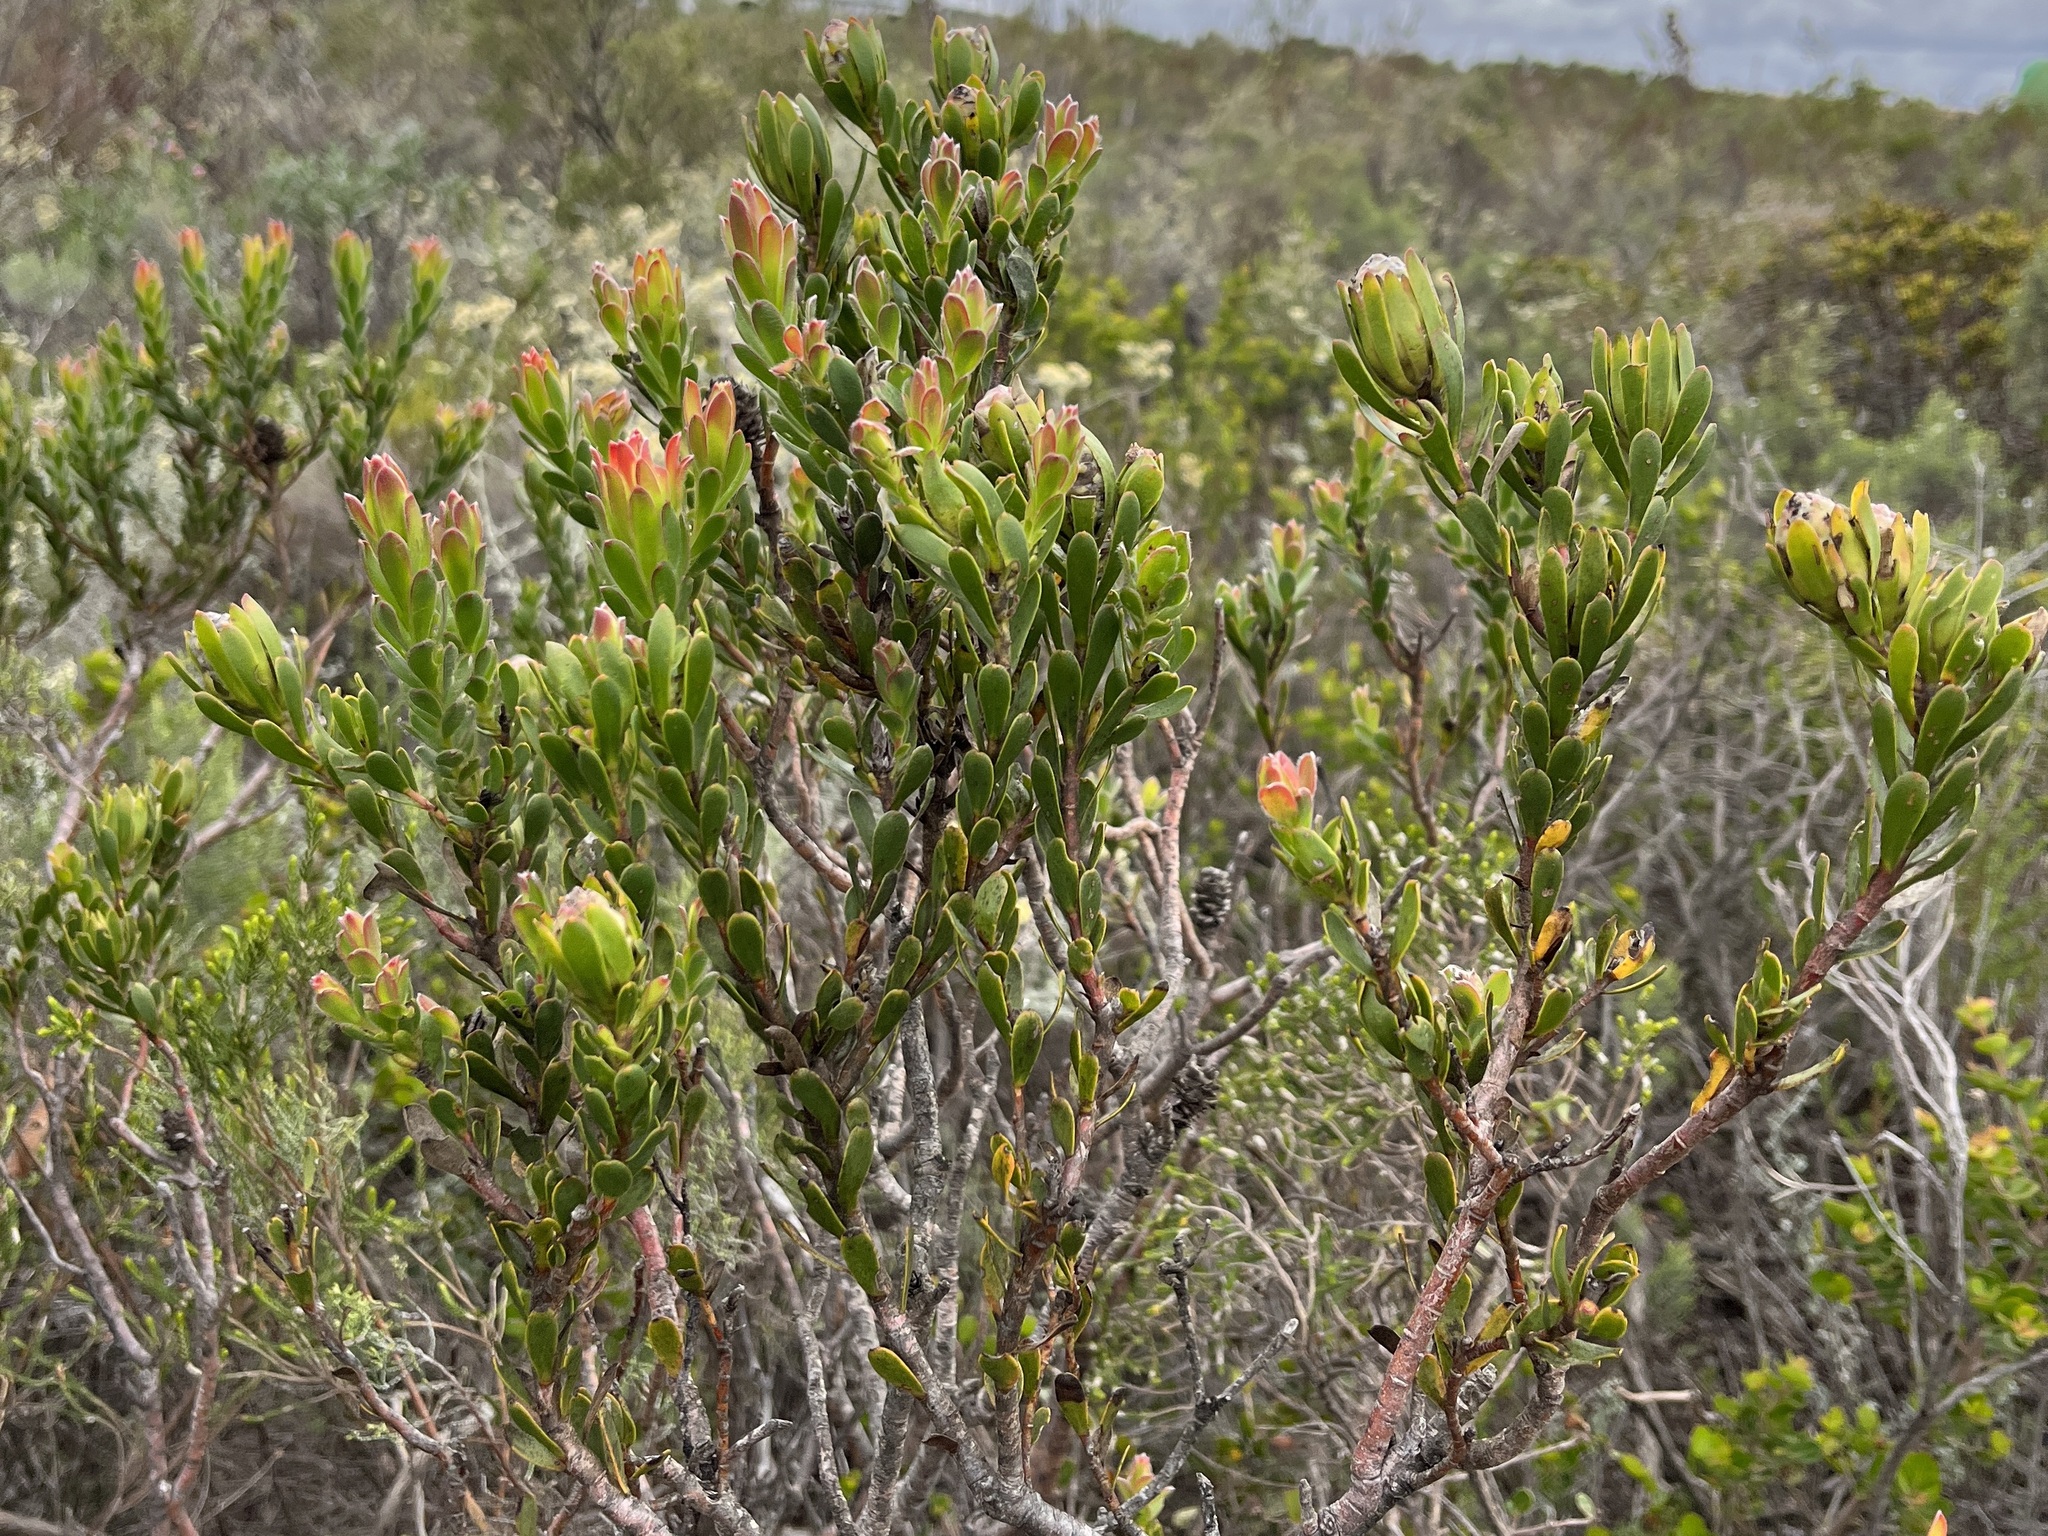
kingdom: Plantae
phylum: Tracheophyta
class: Magnoliopsida
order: Proteales
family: Proteaceae
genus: Leucadendron
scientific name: Leucadendron stelligerum
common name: Agulhas conebush
